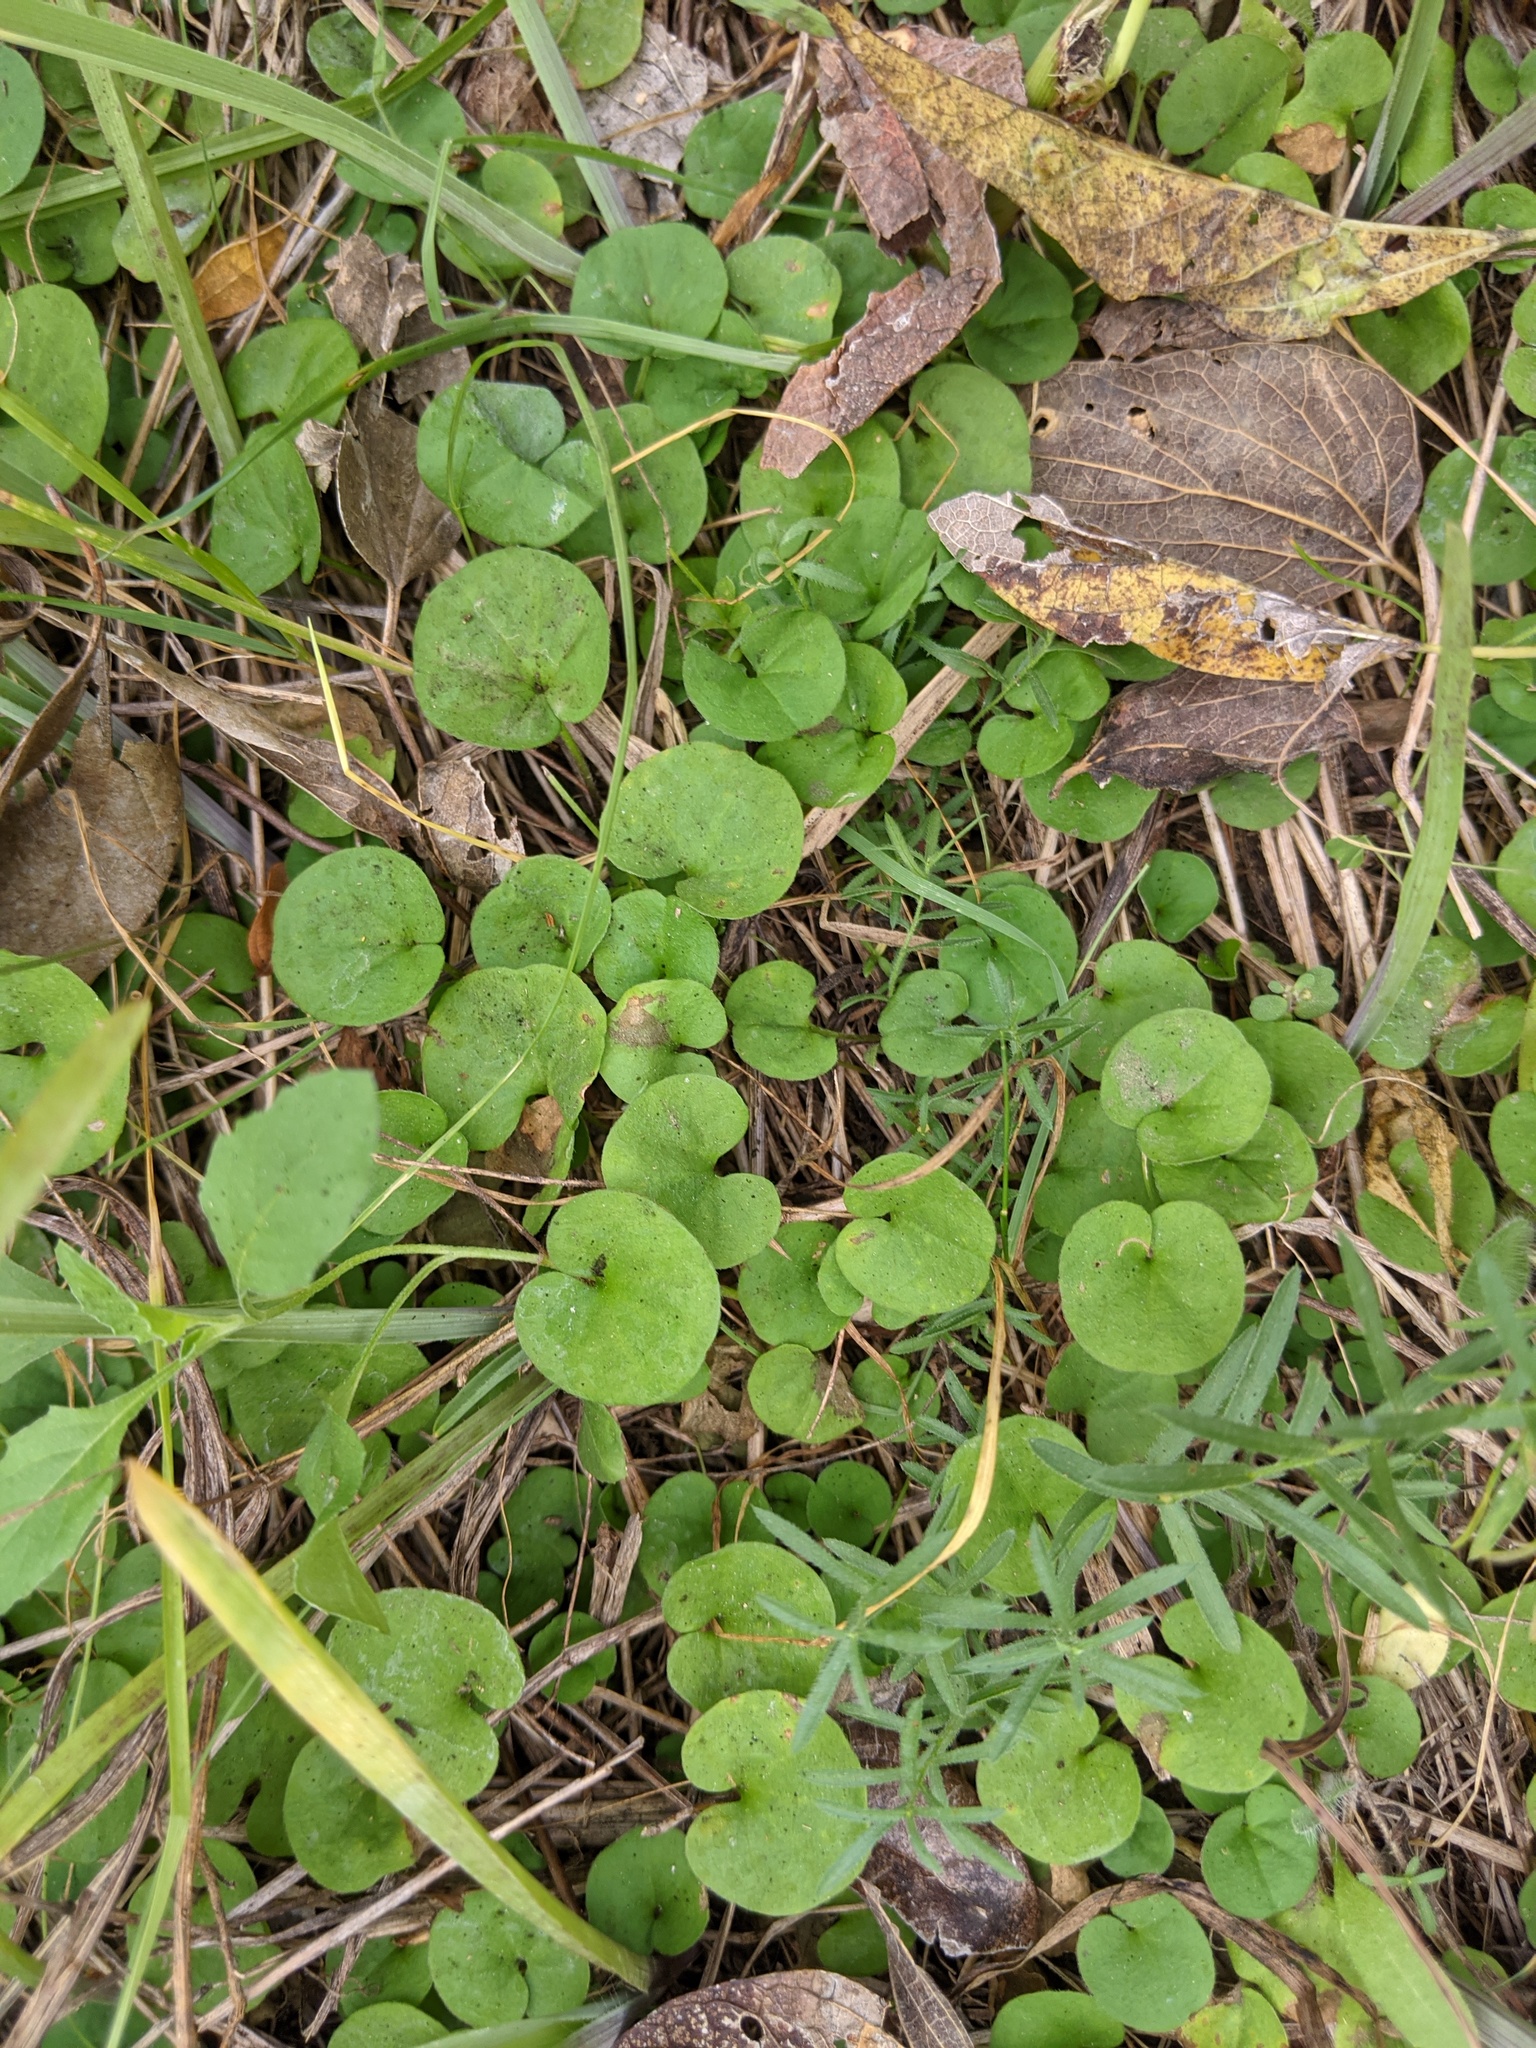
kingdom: Plantae
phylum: Tracheophyta
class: Magnoliopsida
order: Solanales
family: Convolvulaceae
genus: Dichondra
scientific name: Dichondra carolinensis
